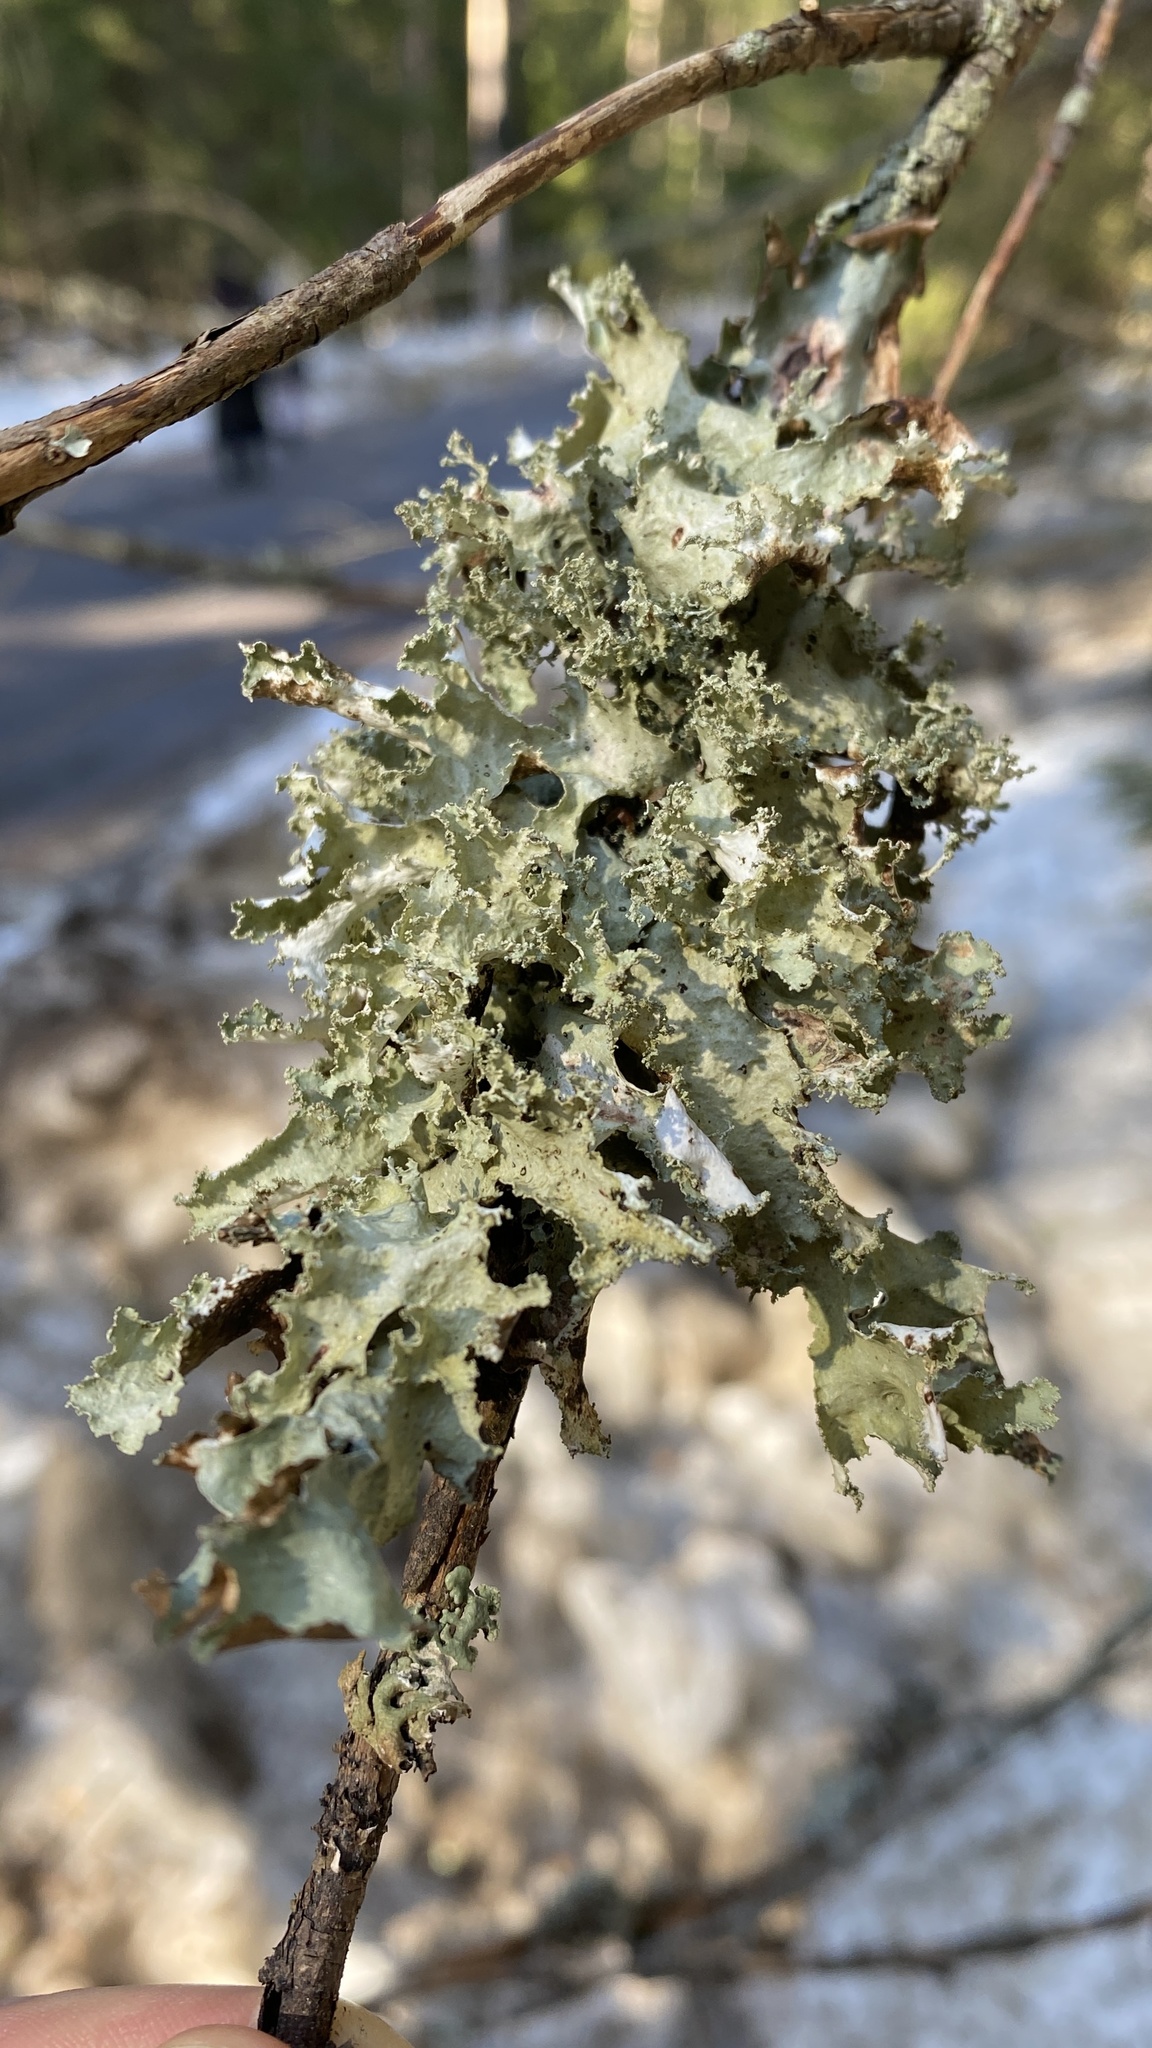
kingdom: Fungi
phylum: Ascomycota
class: Lecanoromycetes
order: Lecanorales
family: Parmeliaceae
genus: Platismatia
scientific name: Platismatia glauca
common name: Varied rag lichen
